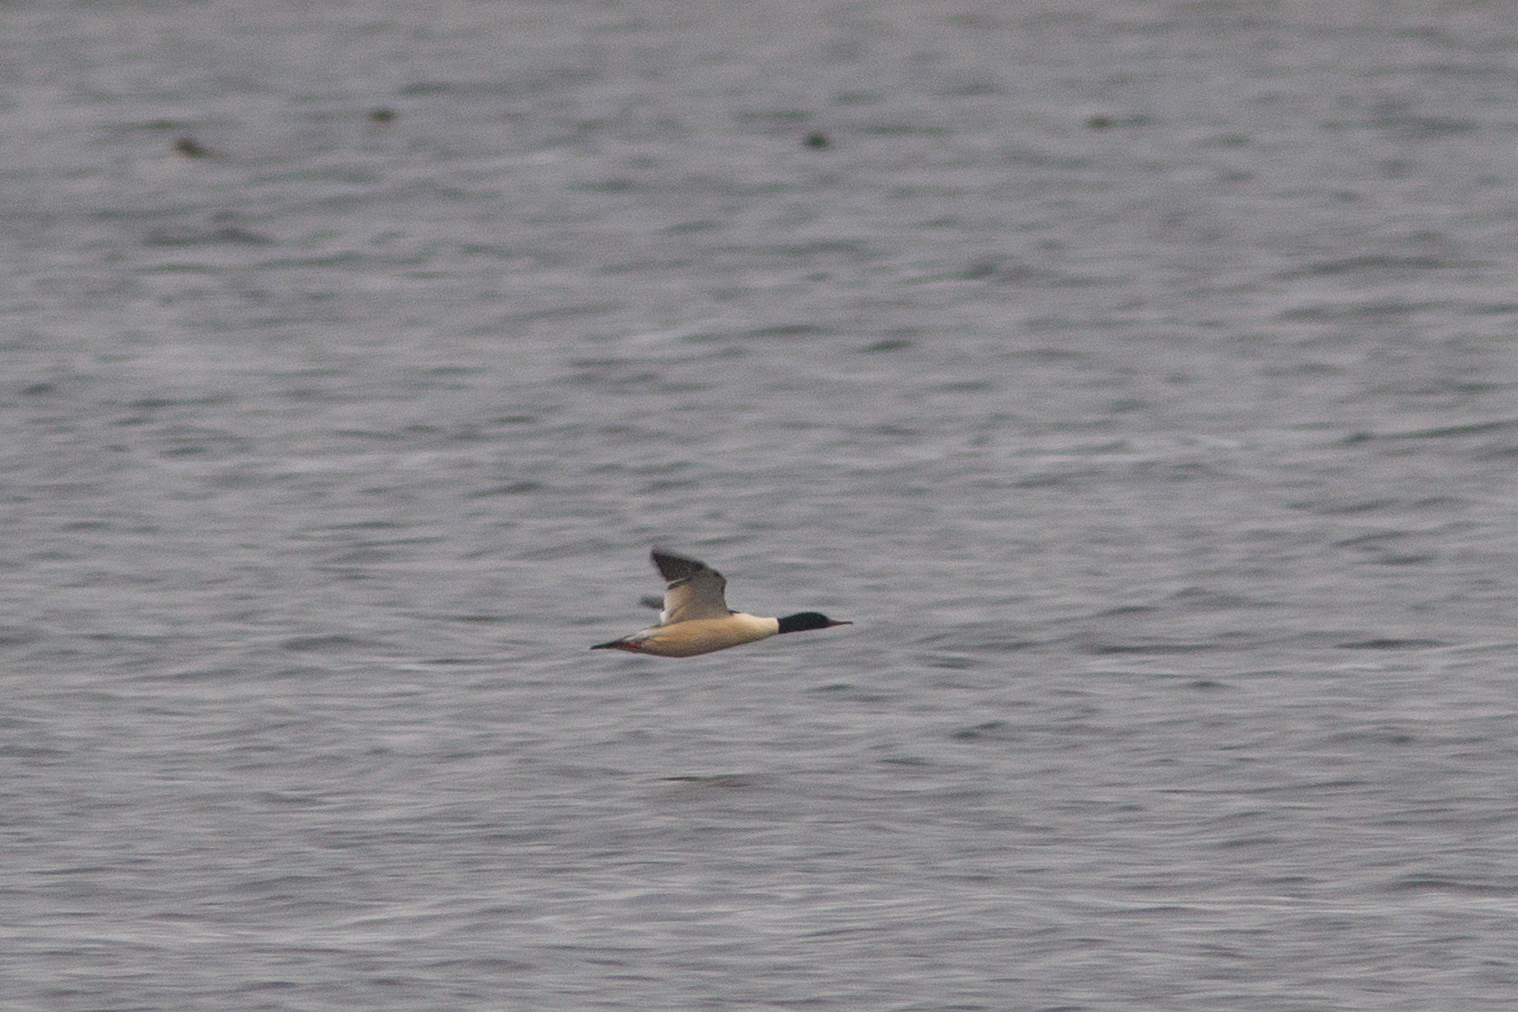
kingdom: Animalia
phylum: Chordata
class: Aves
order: Anseriformes
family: Anatidae
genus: Mergus
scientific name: Mergus merganser
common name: Common merganser
